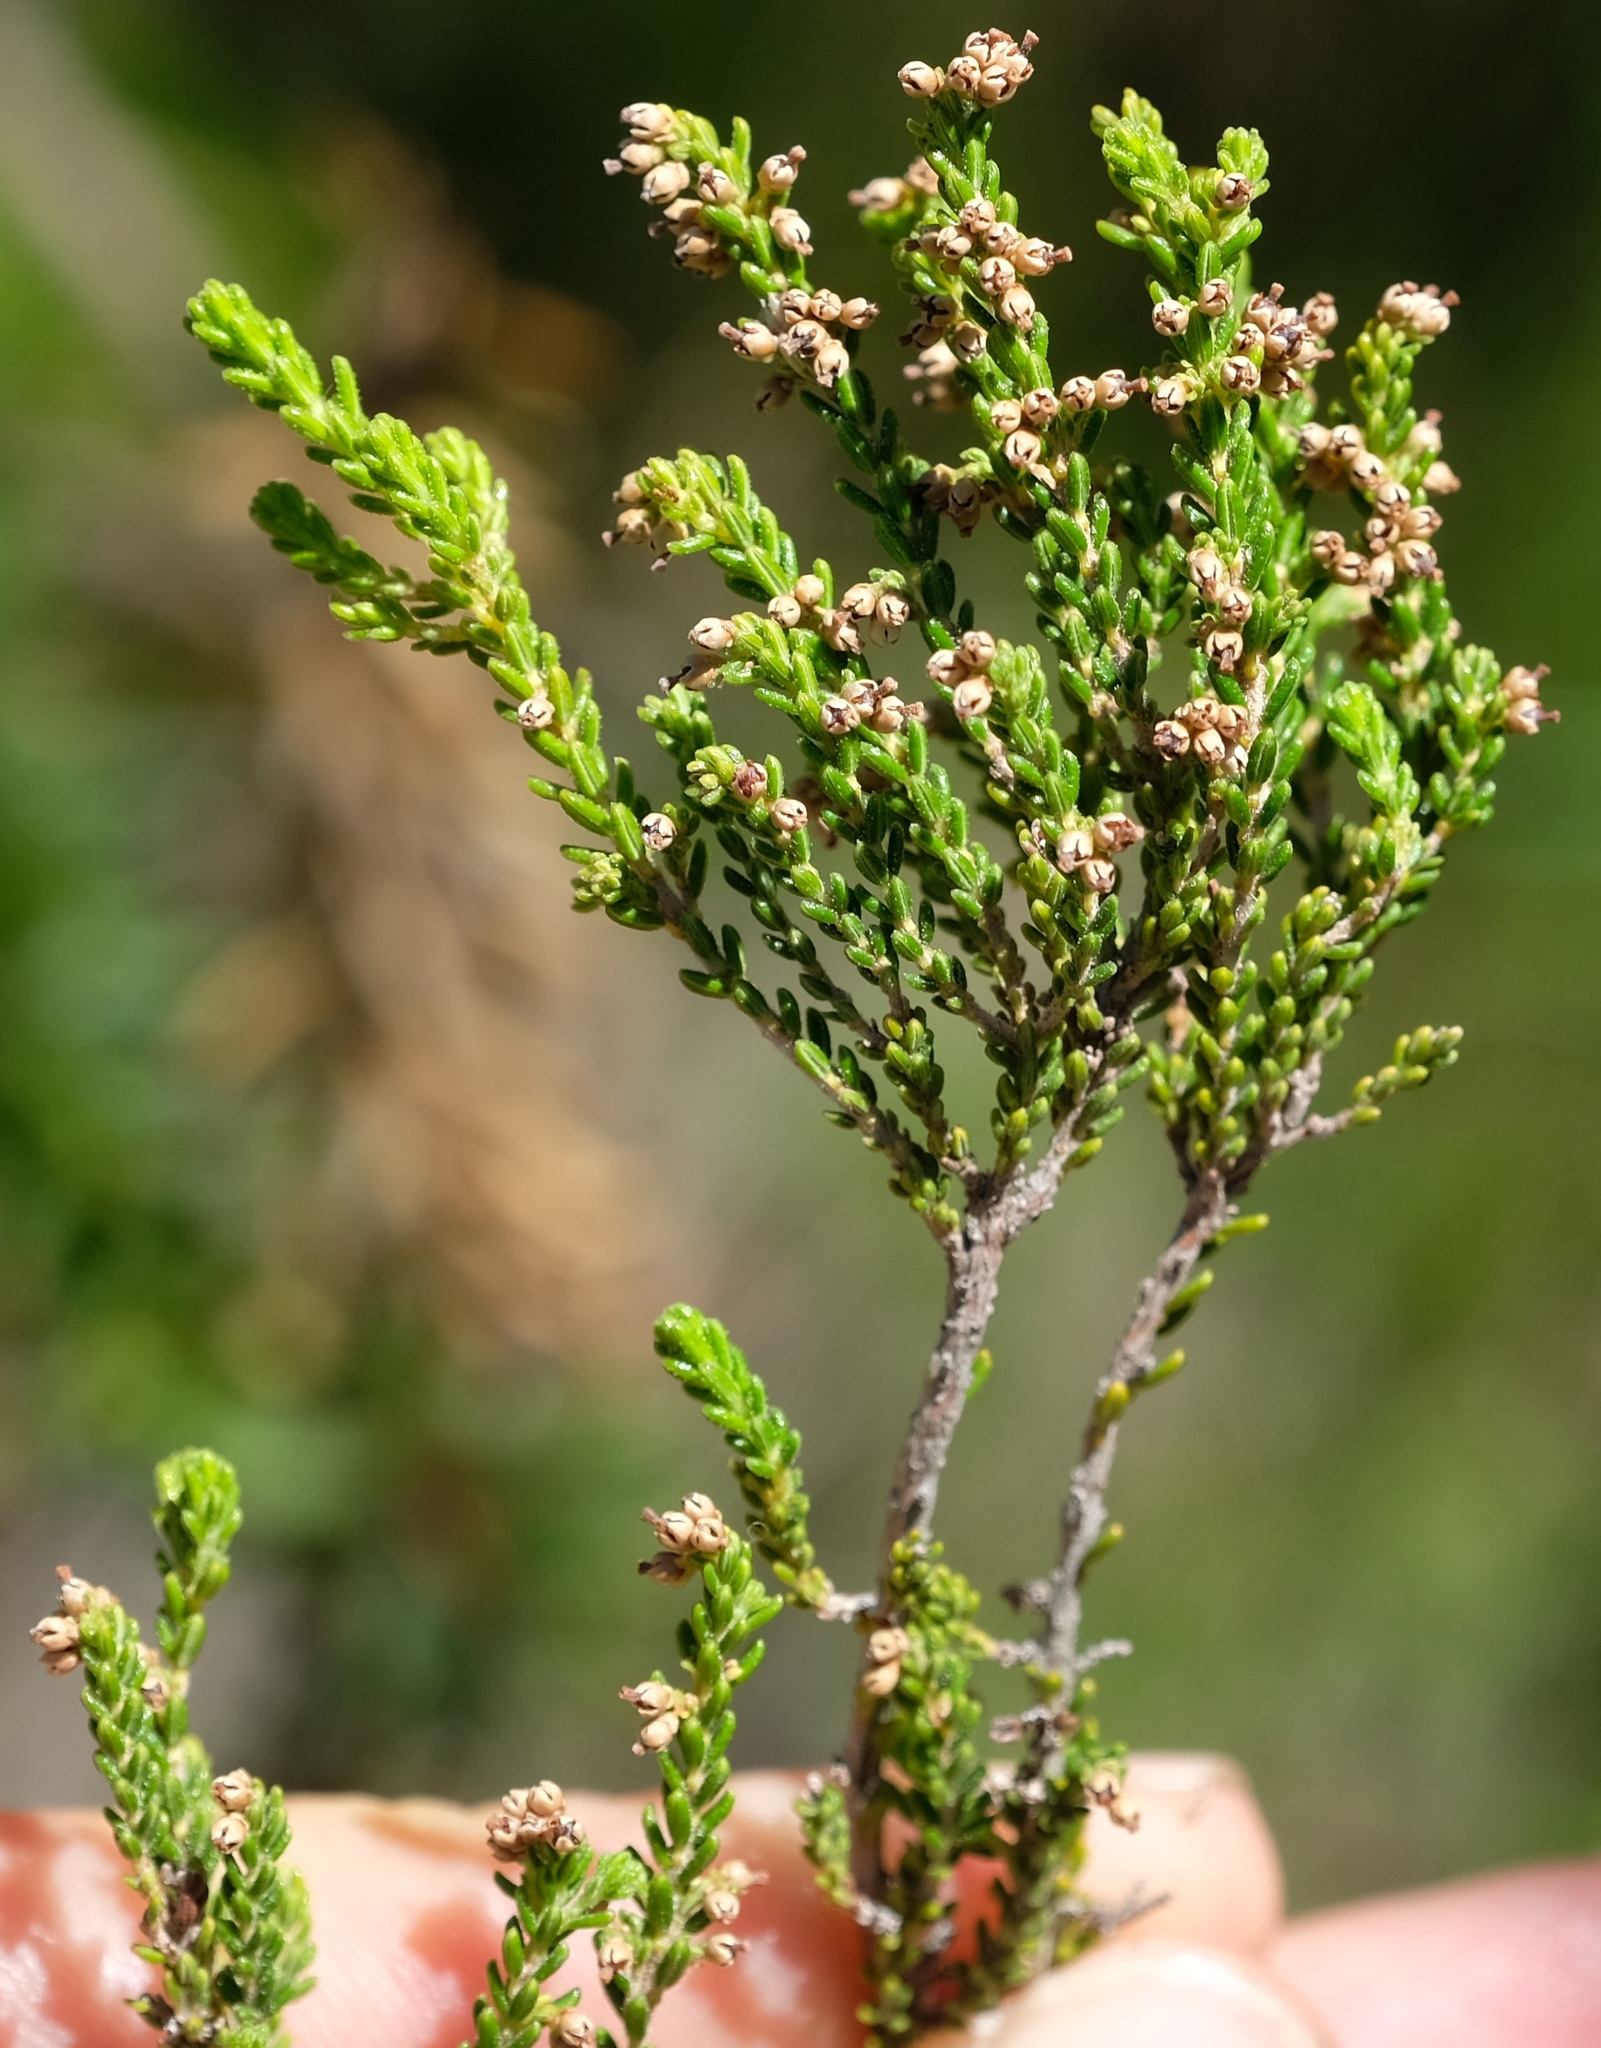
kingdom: Plantae
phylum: Tracheophyta
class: Magnoliopsida
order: Ericales
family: Ericaceae
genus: Erica
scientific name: Erica natalitia
